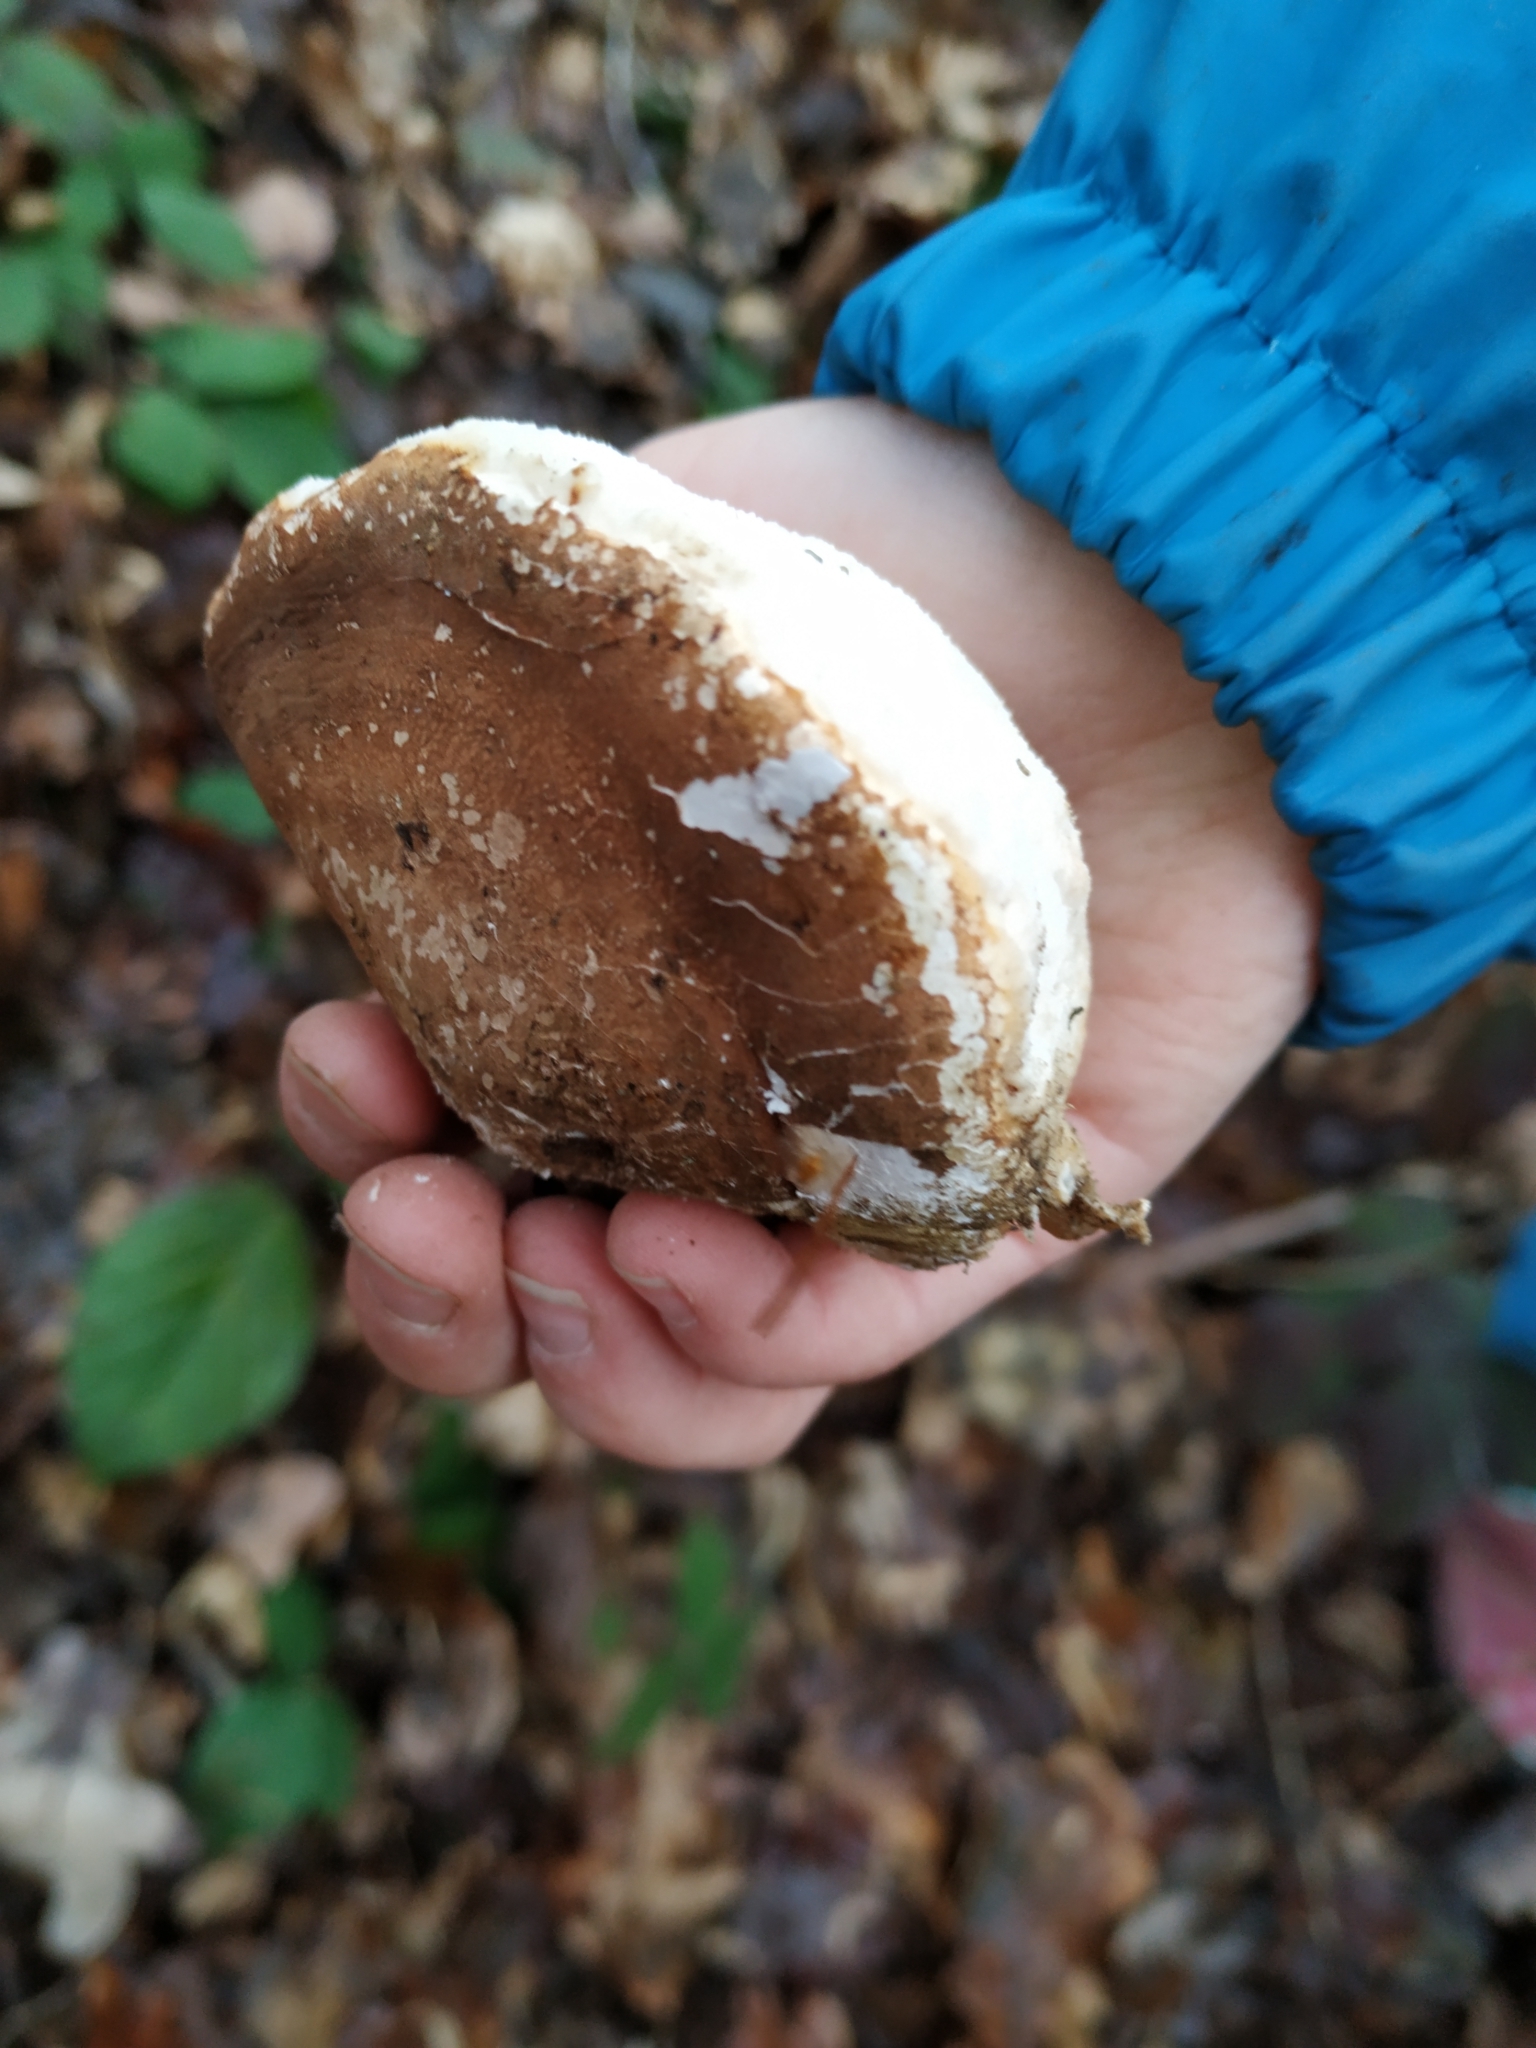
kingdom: Fungi
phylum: Basidiomycota
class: Agaricomycetes
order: Polyporales
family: Fomitopsidaceae
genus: Fomitopsis
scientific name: Fomitopsis betulina
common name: Birch polypore
